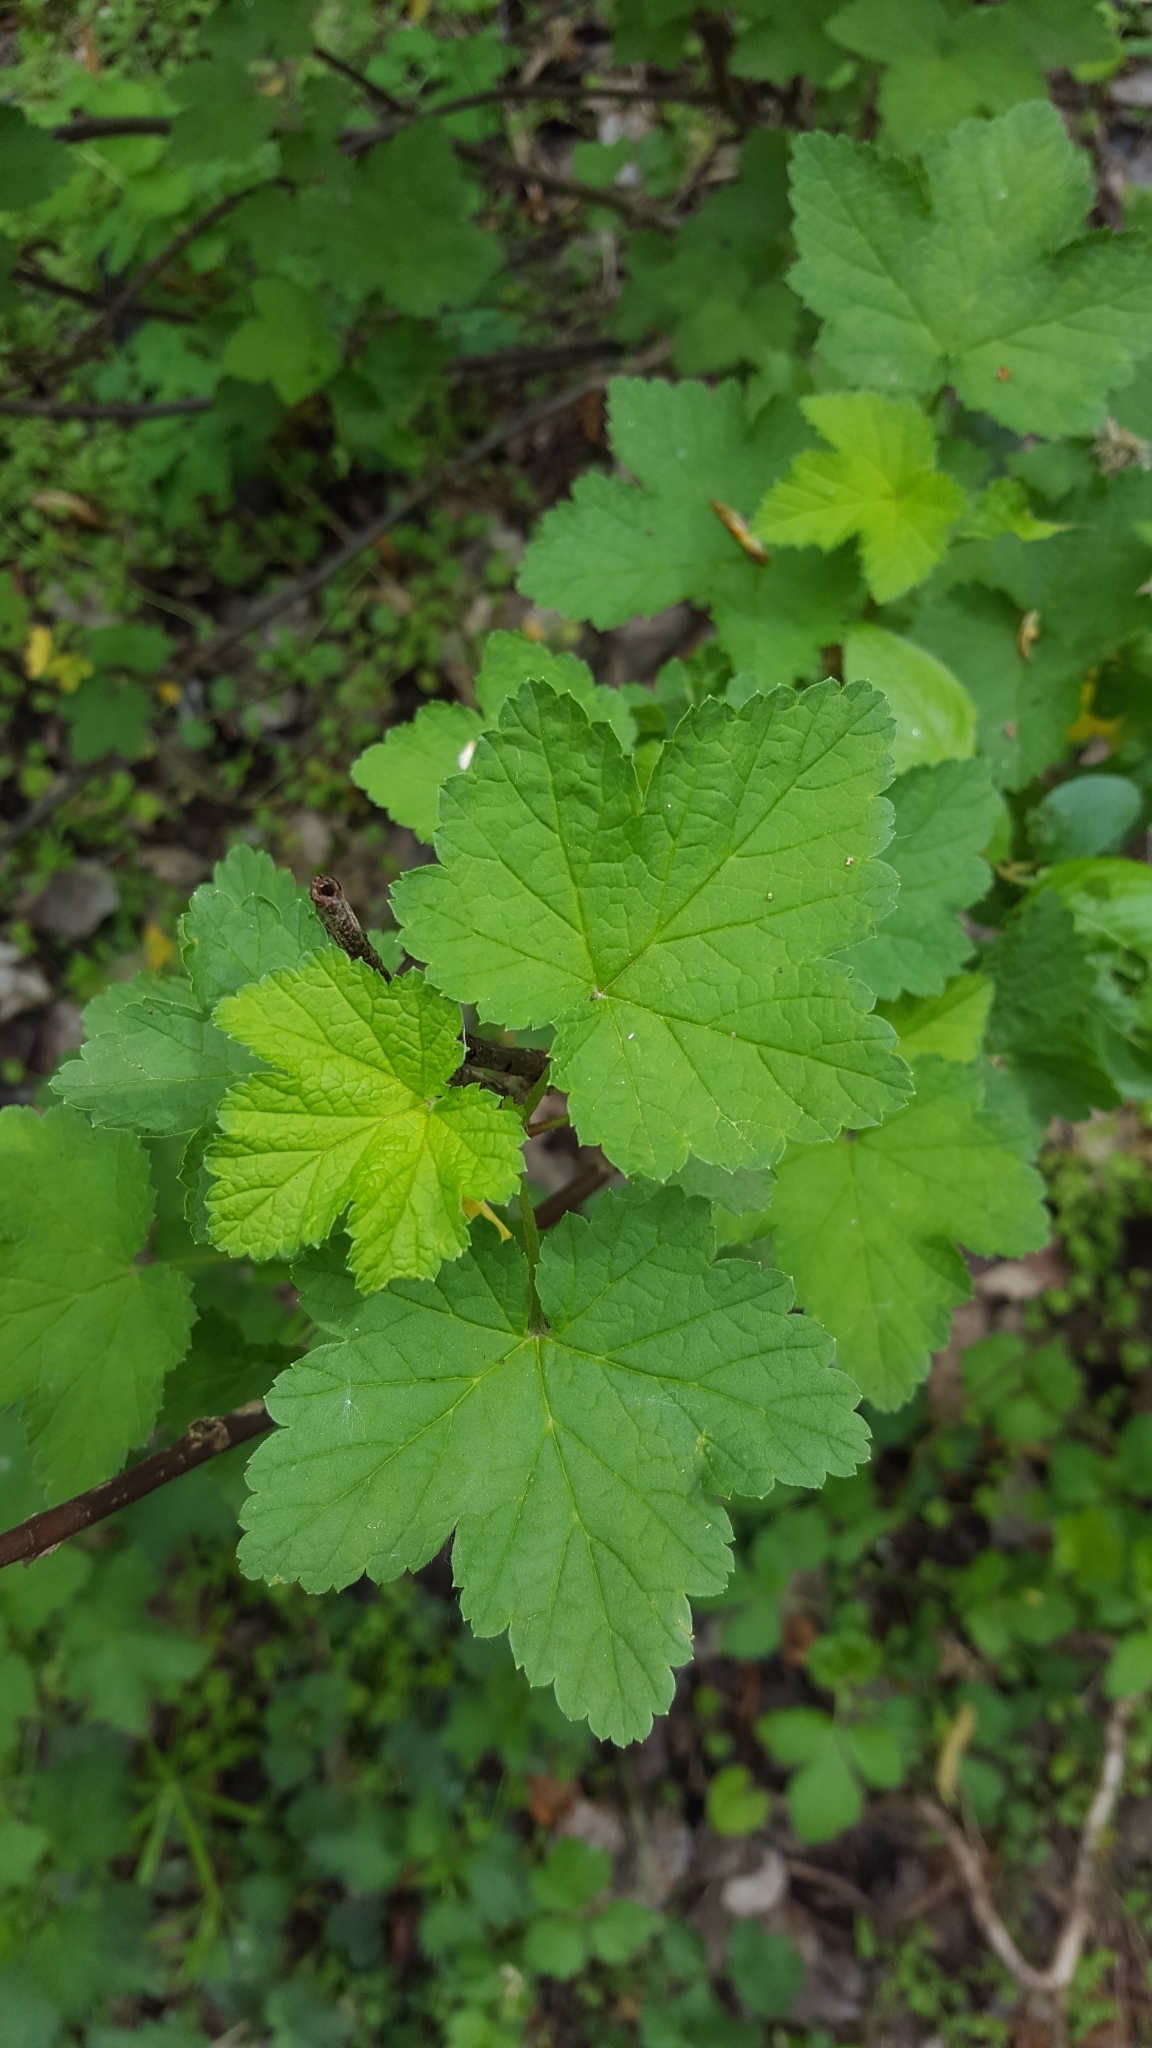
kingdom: Plantae
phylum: Tracheophyta
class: Magnoliopsida
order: Saxifragales
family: Grossulariaceae
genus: Ribes
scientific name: Ribes rubrum
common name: Red currant
